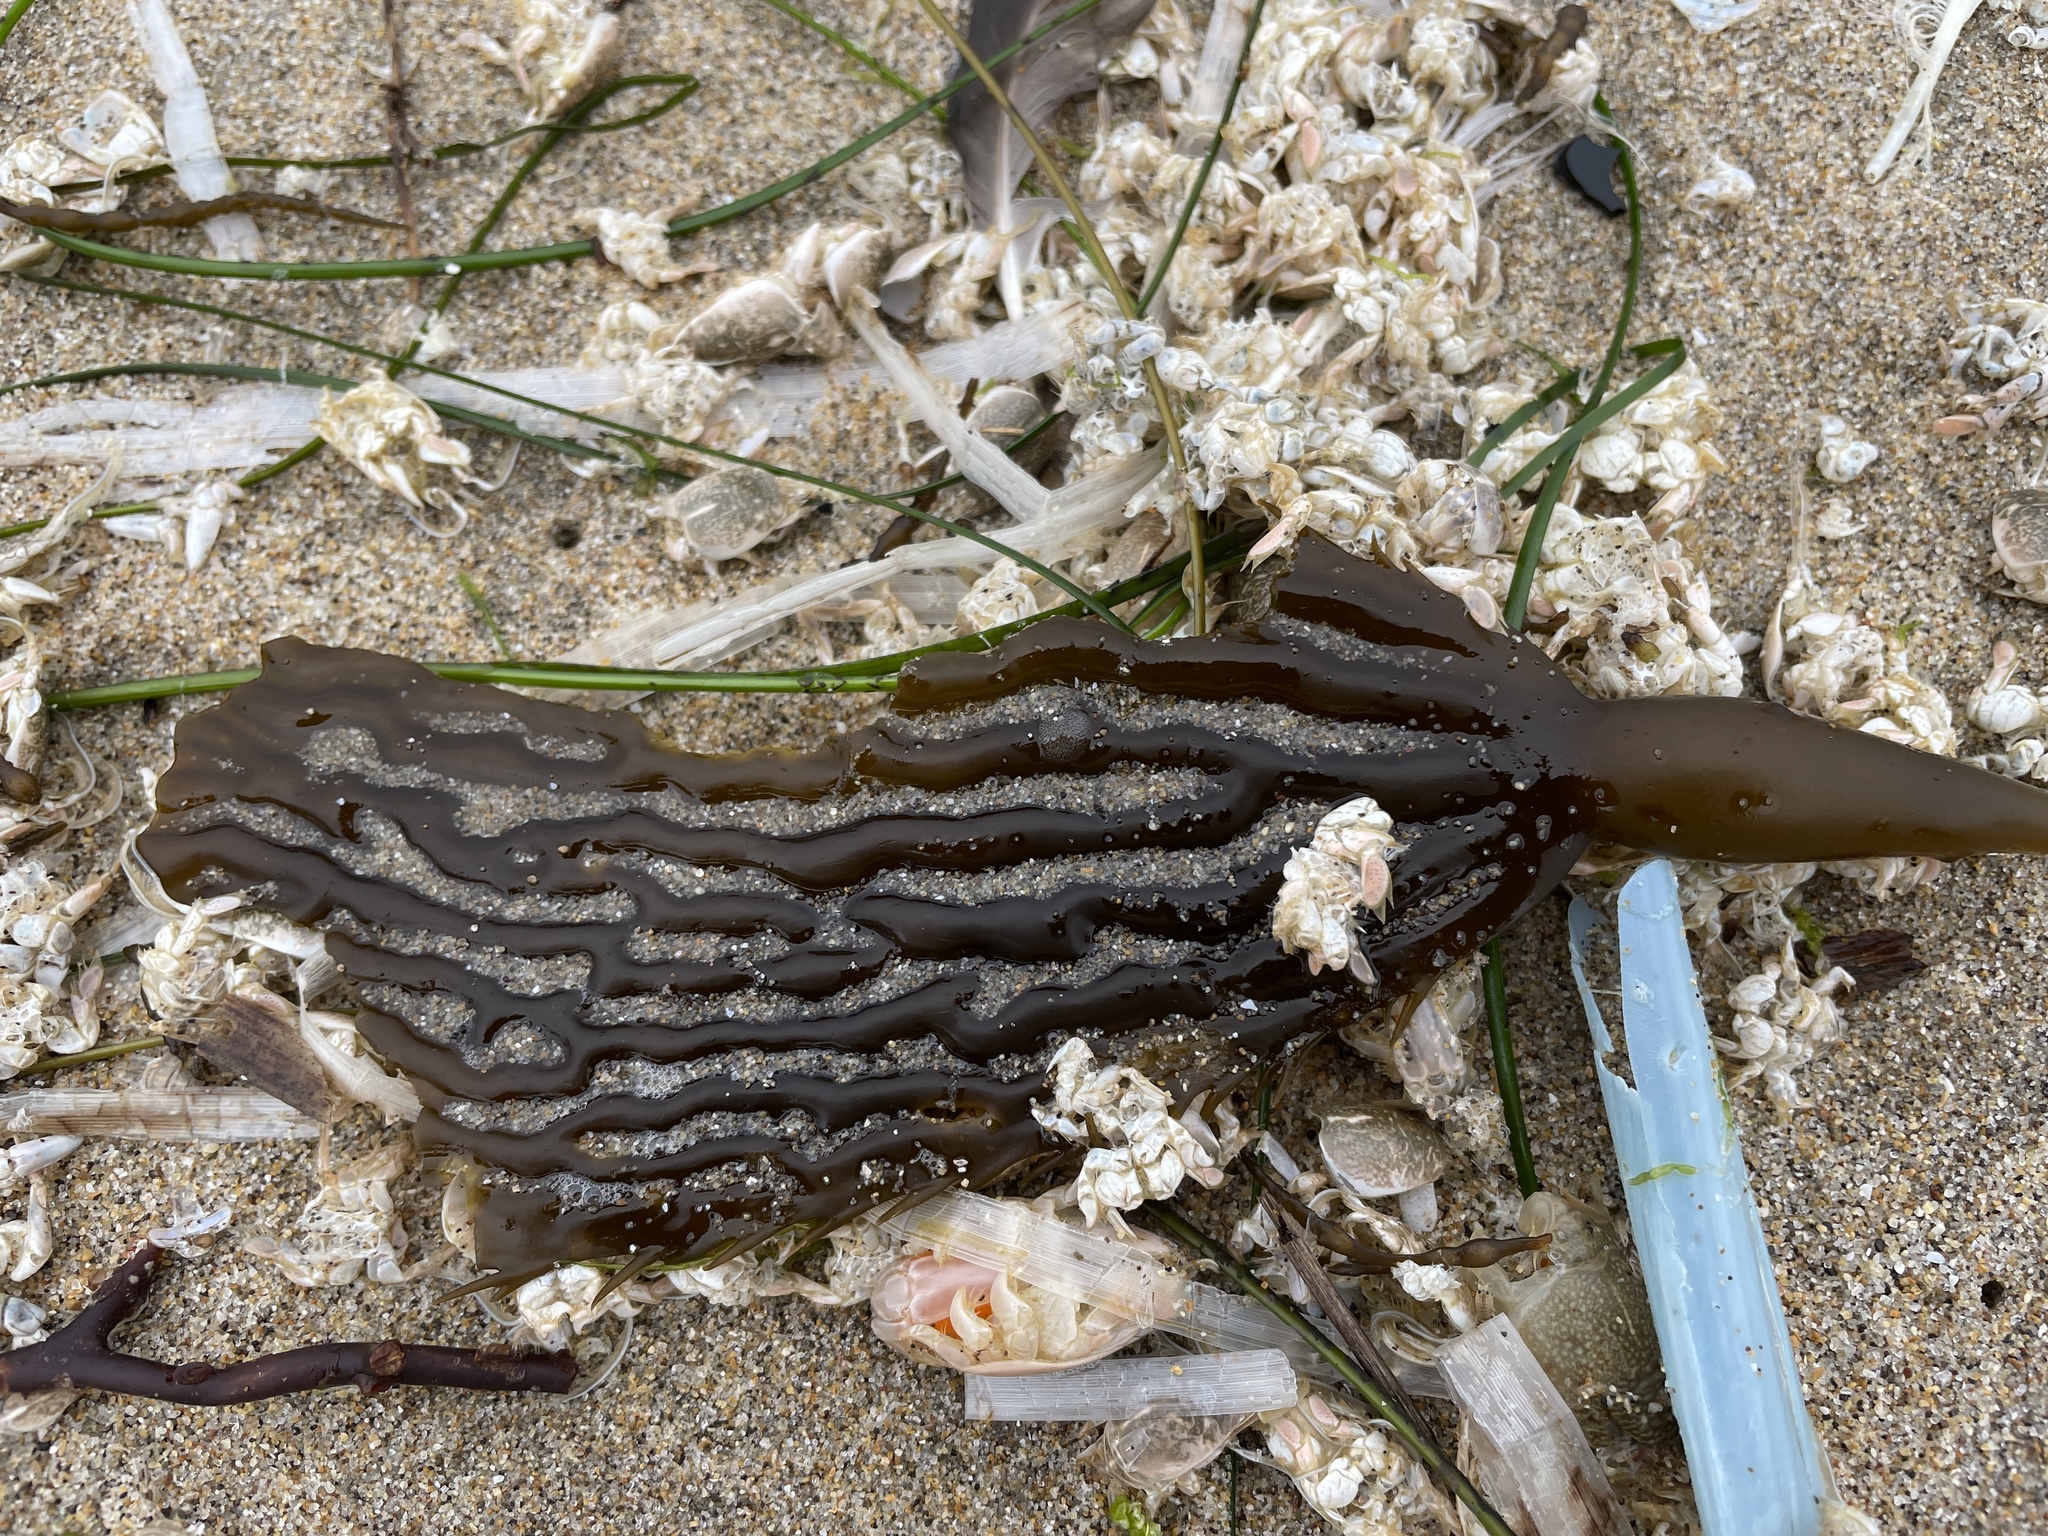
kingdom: Chromista
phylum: Ochrophyta
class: Phaeophyceae
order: Laminariales
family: Laminariaceae
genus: Macrocystis
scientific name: Macrocystis pyrifera
